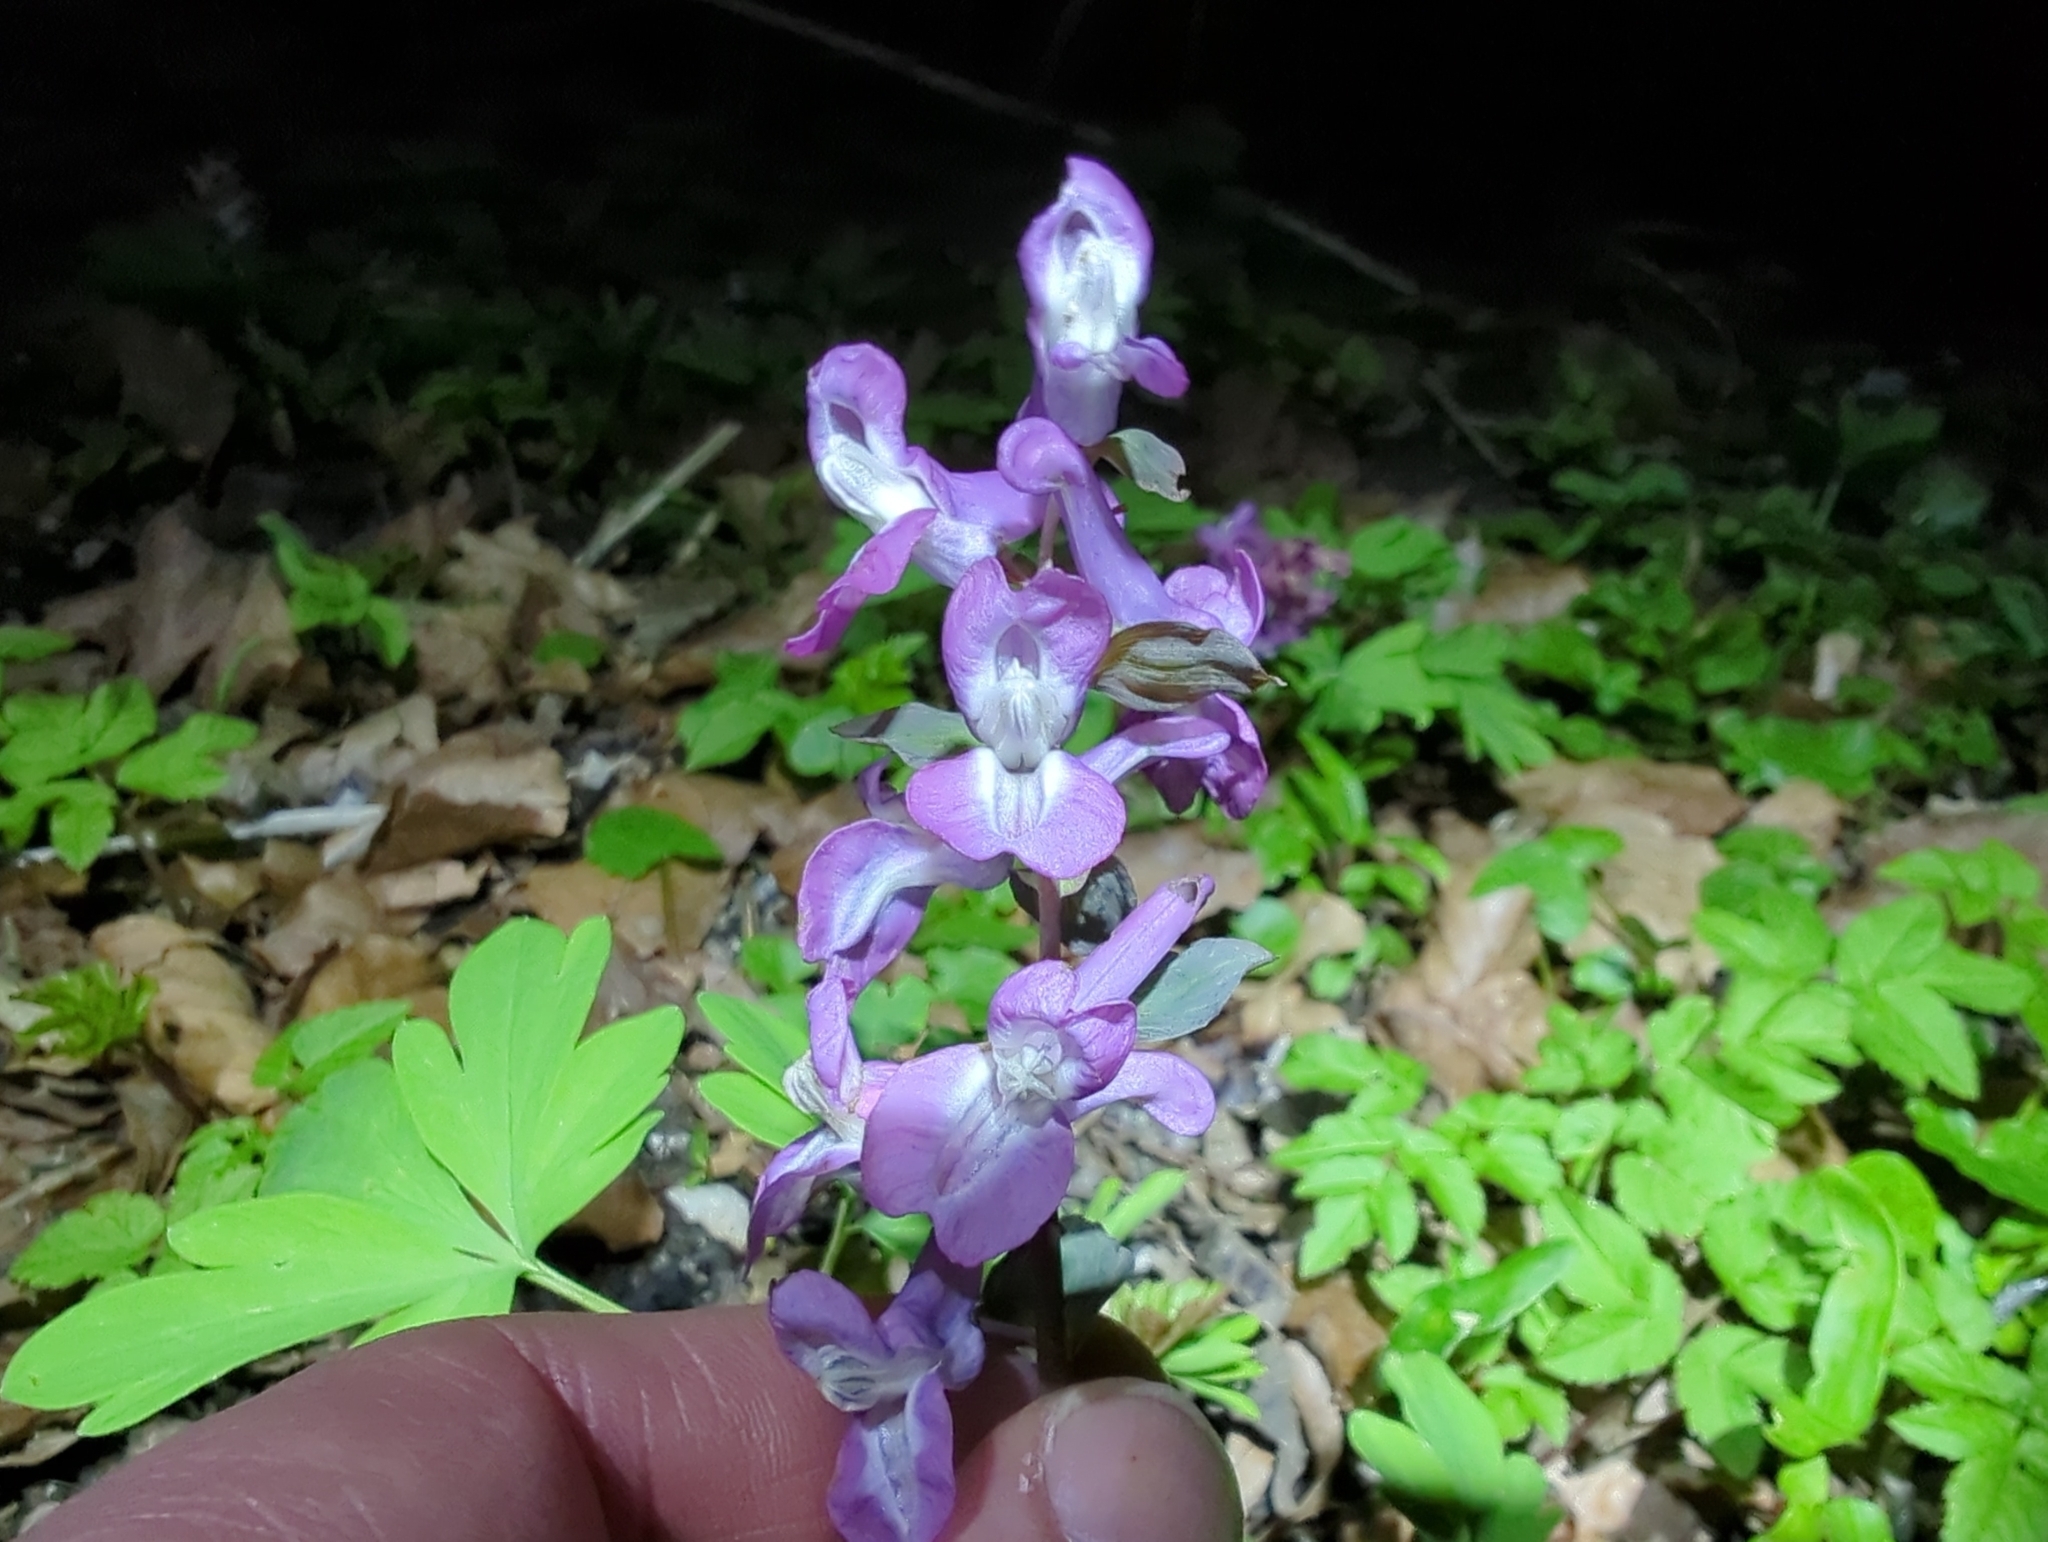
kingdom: Plantae
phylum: Tracheophyta
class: Magnoliopsida
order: Ranunculales
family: Papaveraceae
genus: Corydalis
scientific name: Corydalis cava
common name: Hollowroot
